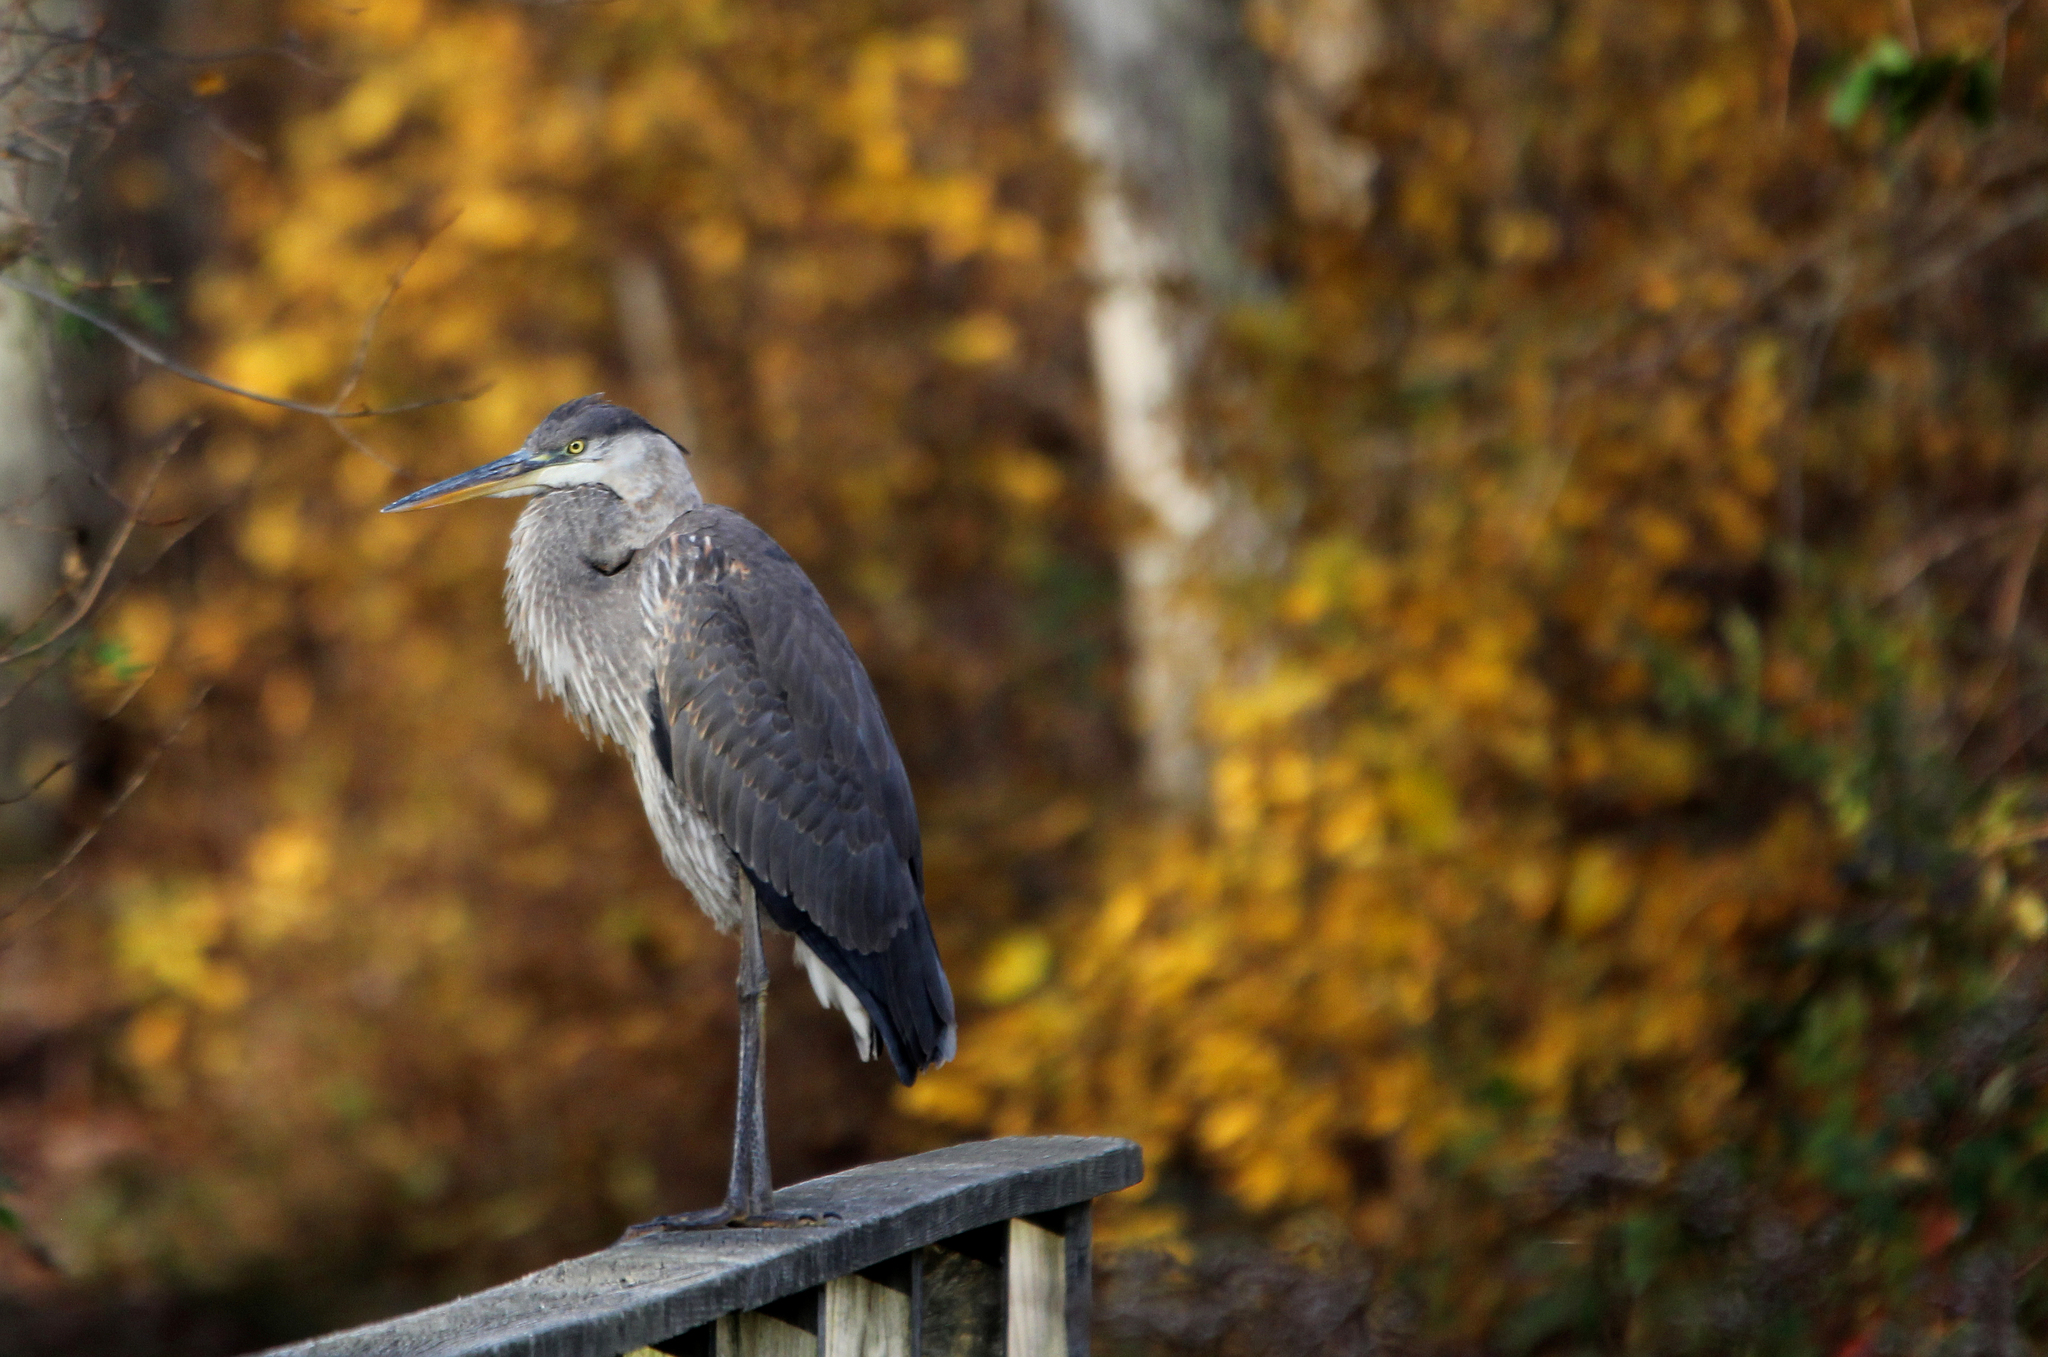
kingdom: Animalia
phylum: Chordata
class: Aves
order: Pelecaniformes
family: Ardeidae
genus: Ardea
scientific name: Ardea herodias
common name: Great blue heron
